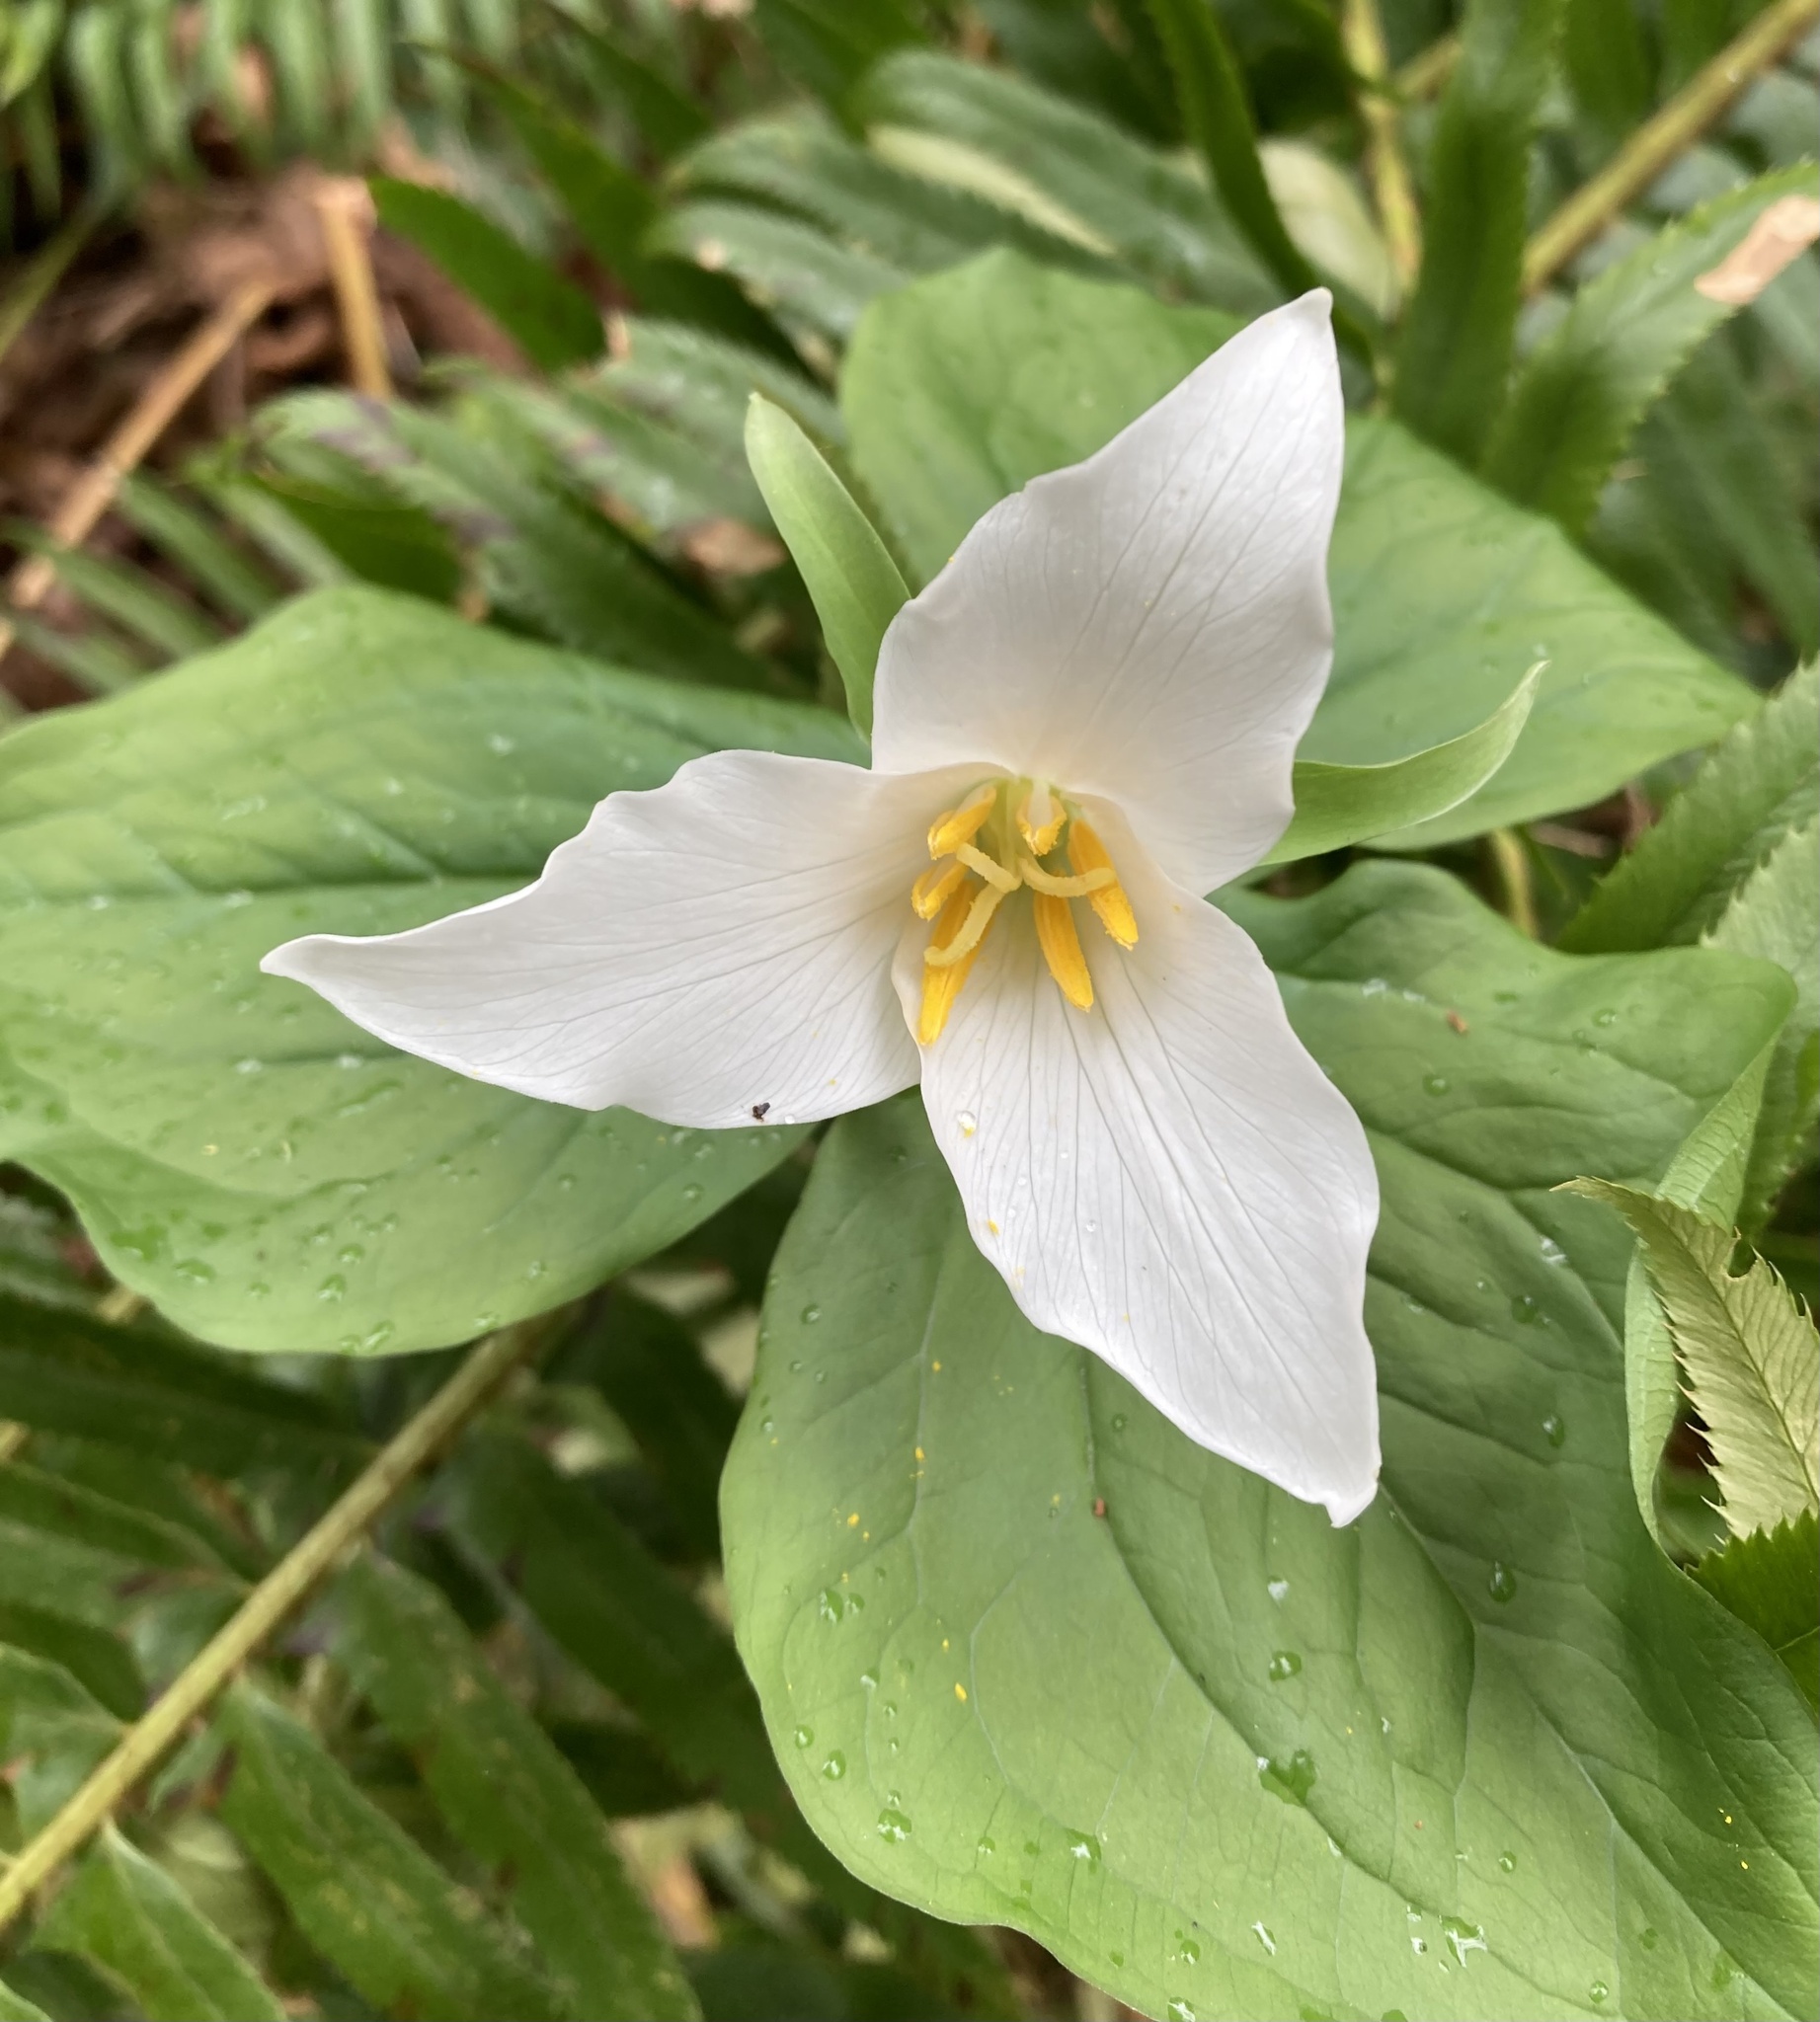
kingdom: Plantae
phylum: Tracheophyta
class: Liliopsida
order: Liliales
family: Melanthiaceae
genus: Trillium
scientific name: Trillium ovatum
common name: Pacific trillium
